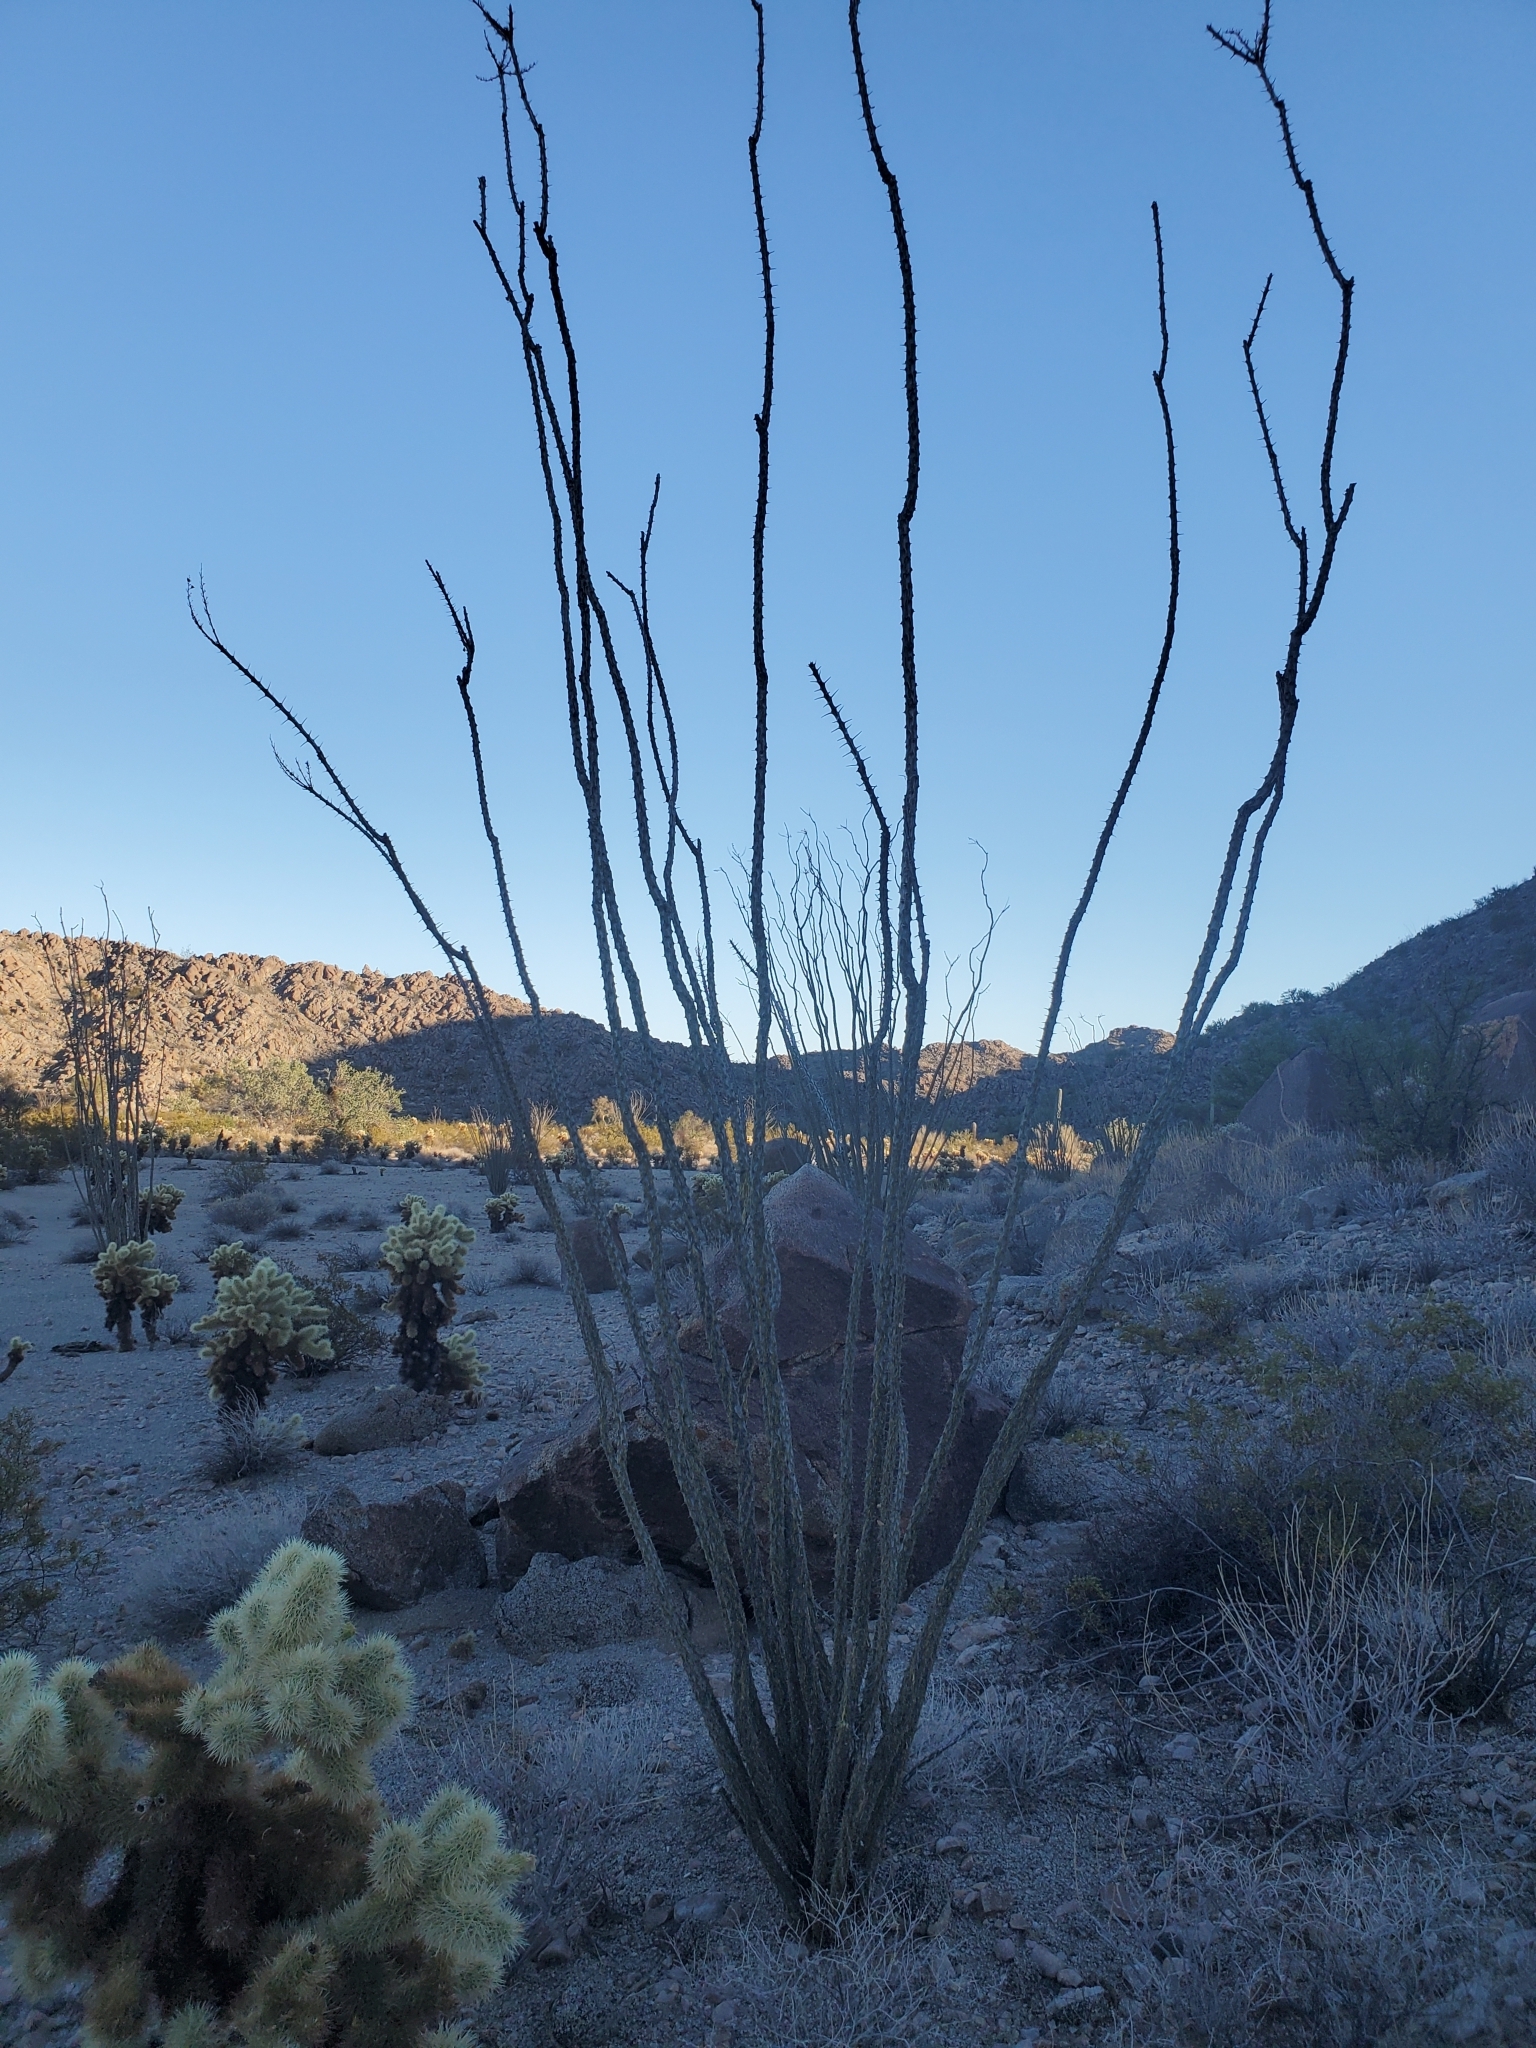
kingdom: Plantae
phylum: Tracheophyta
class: Magnoliopsida
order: Ericales
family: Fouquieriaceae
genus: Fouquieria
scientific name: Fouquieria splendens
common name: Vine-cactus
